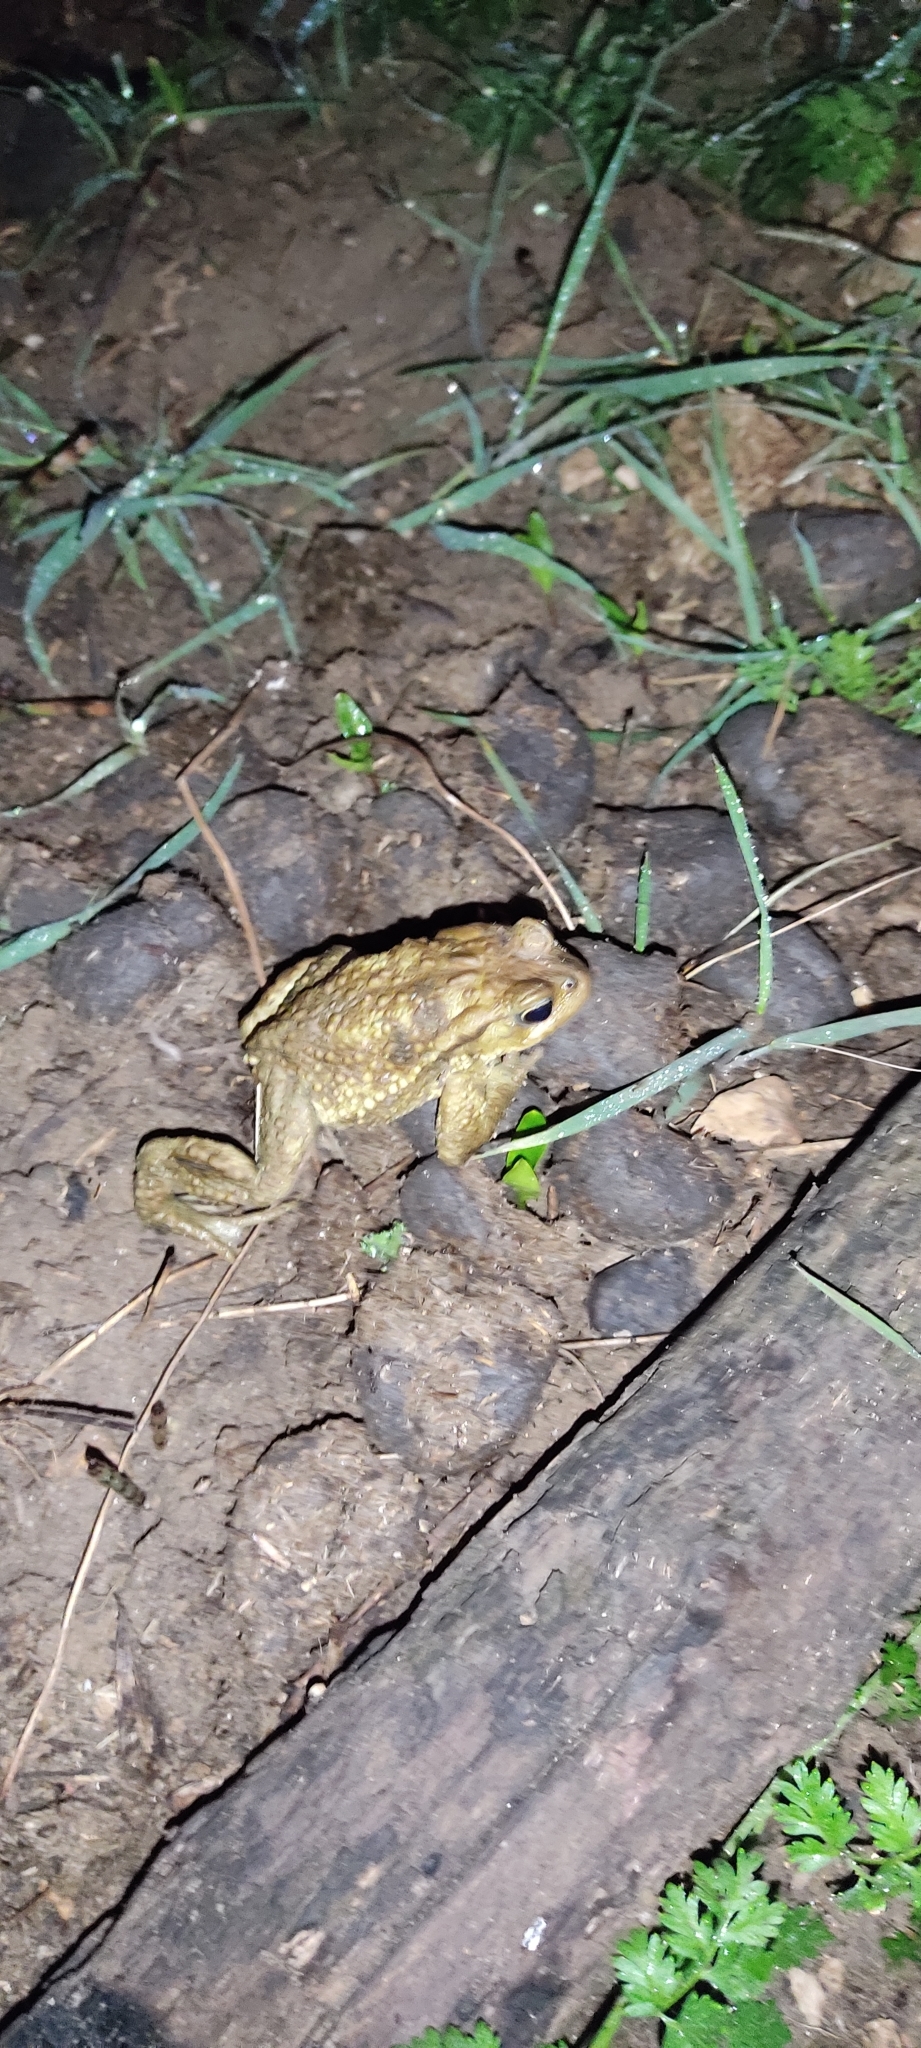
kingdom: Animalia
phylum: Chordata
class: Amphibia
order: Anura
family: Bufonidae
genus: Bufo
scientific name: Bufo spinosus
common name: Western common toad
